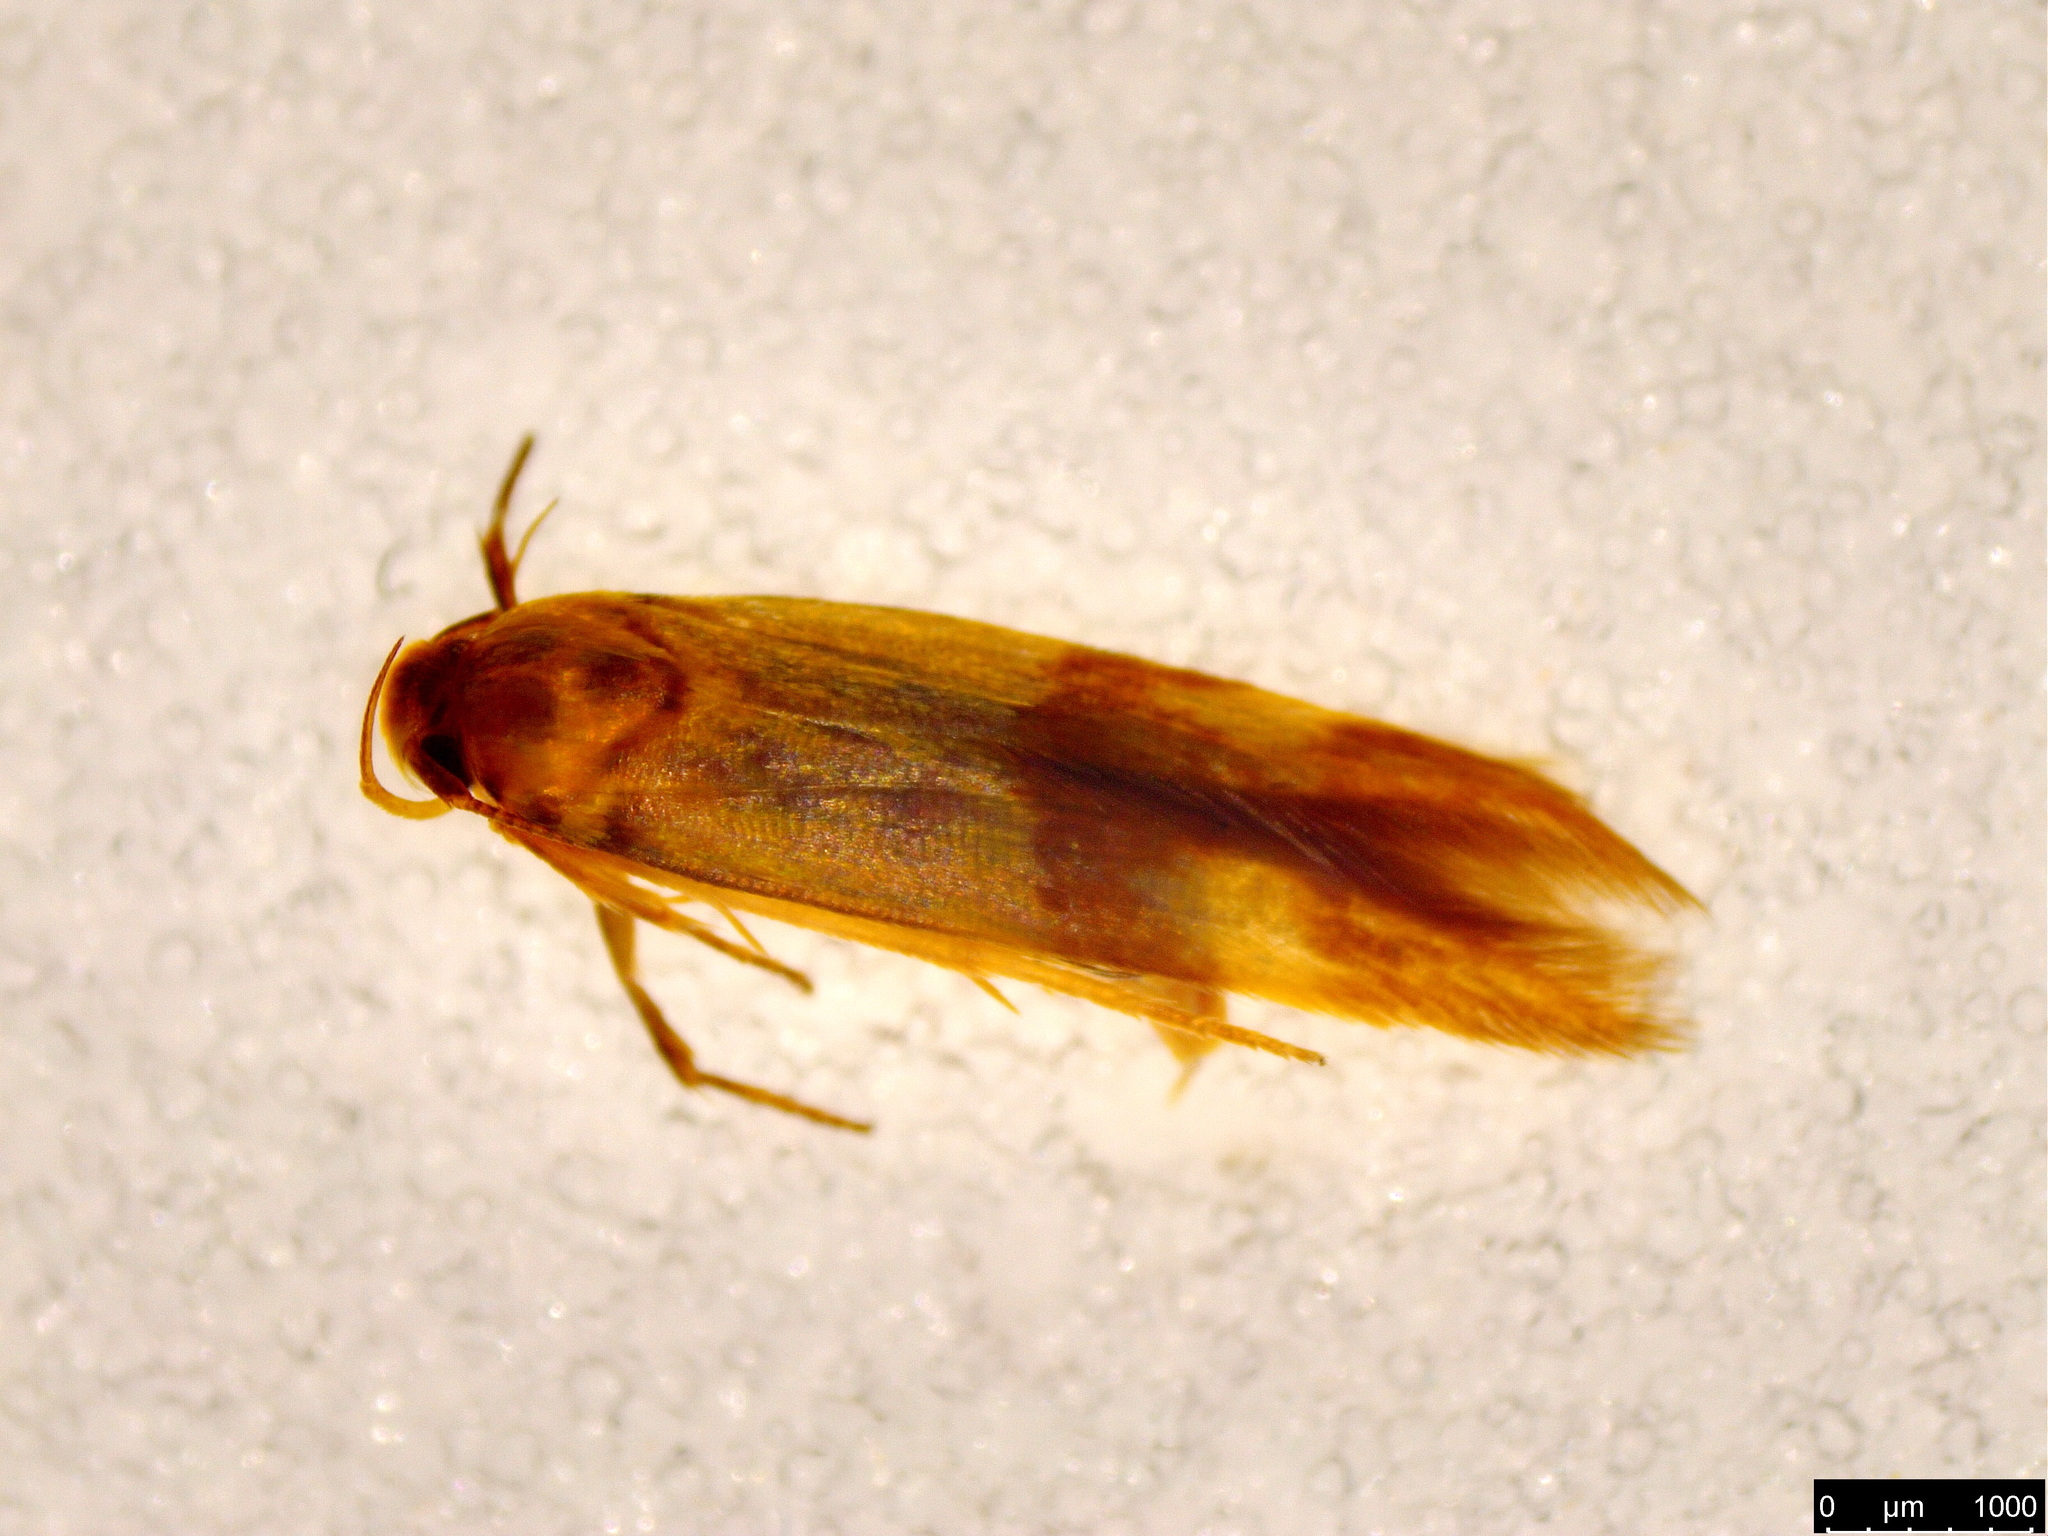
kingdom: Animalia
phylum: Arthropoda
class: Insecta
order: Lepidoptera
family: Stathmopodidae
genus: Stathmopoda
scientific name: Stathmopoda auriferella
